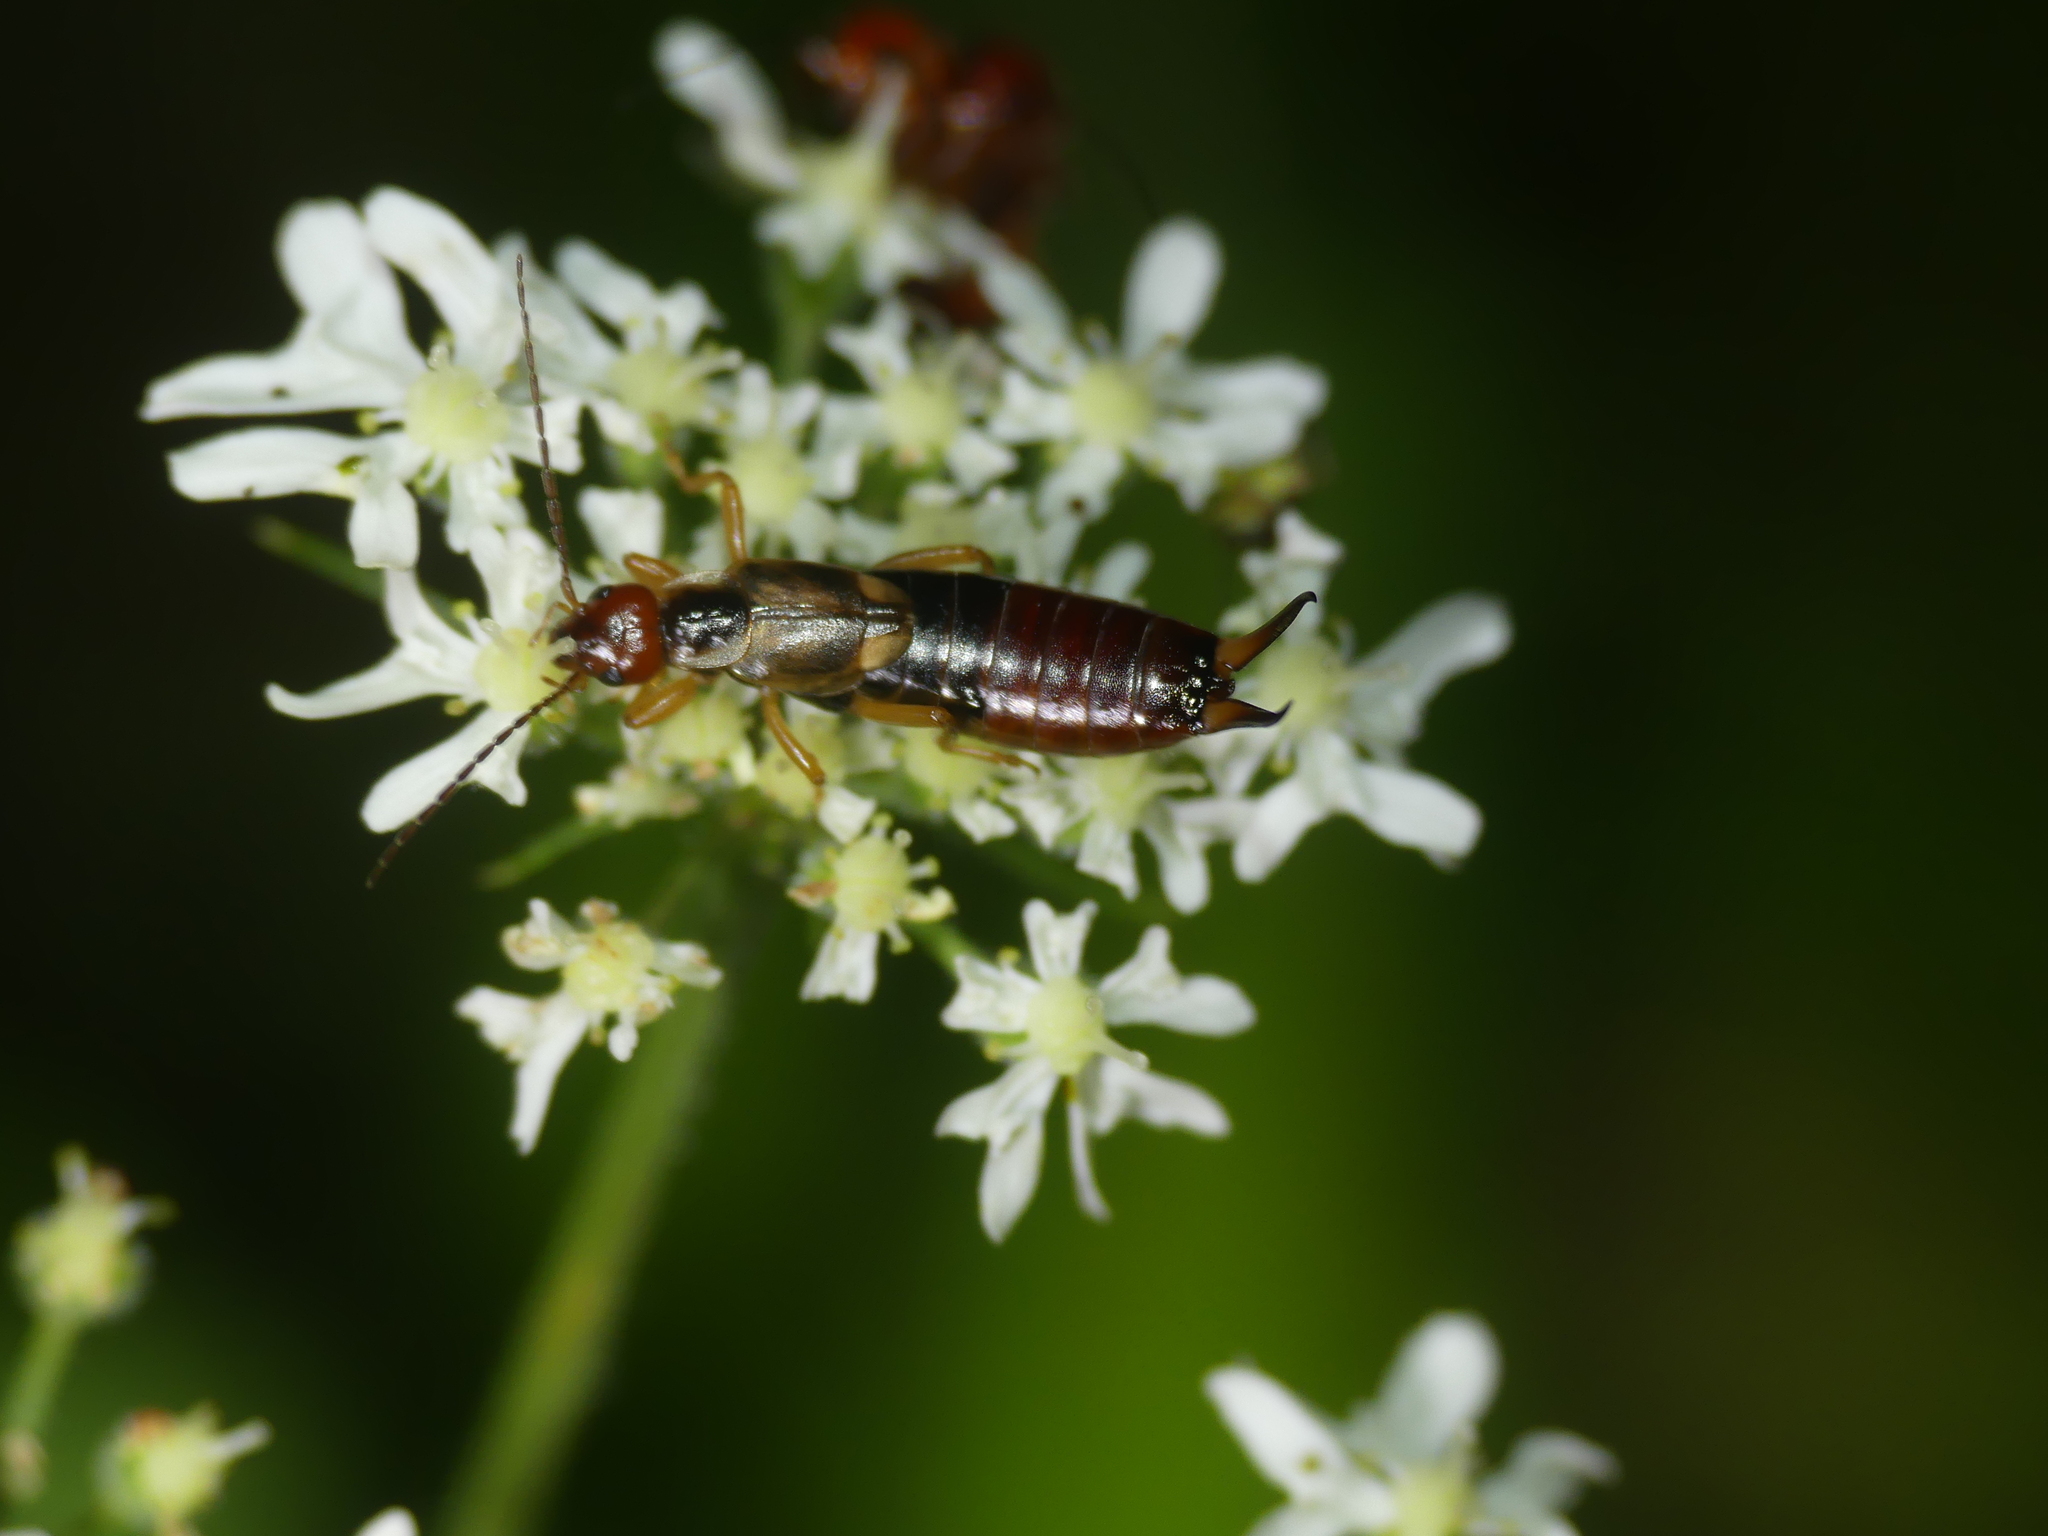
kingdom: Animalia
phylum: Arthropoda
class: Insecta
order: Dermaptera
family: Forficulidae
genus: Forficula
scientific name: Forficula
